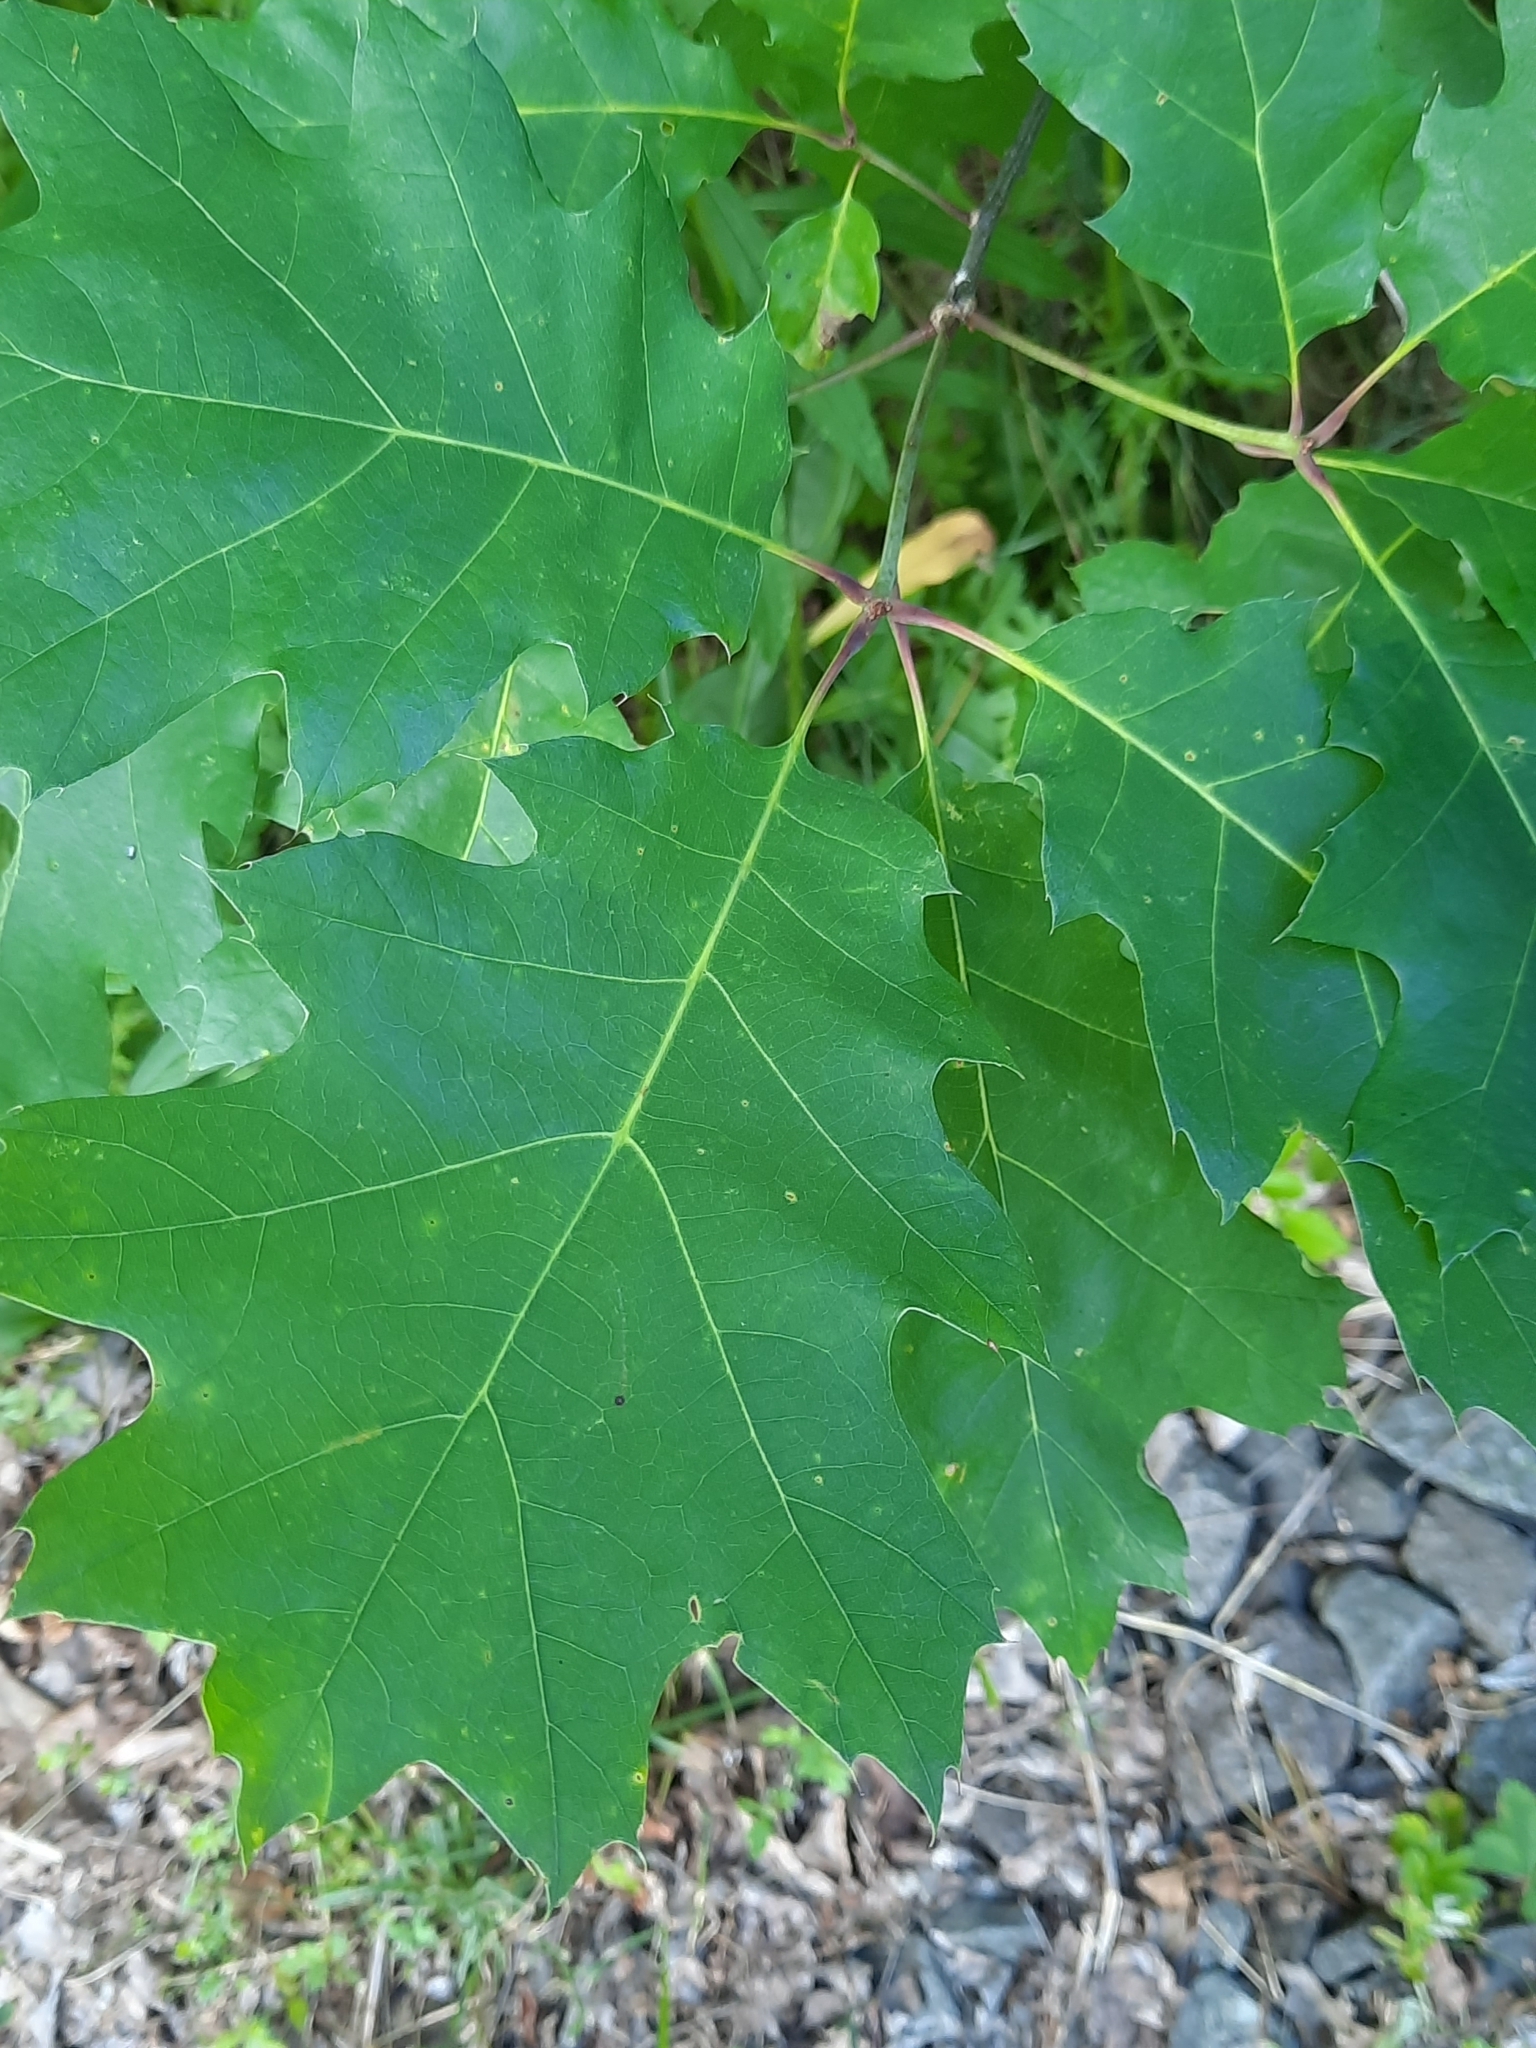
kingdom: Plantae
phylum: Tracheophyta
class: Magnoliopsida
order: Fagales
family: Fagaceae
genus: Quercus
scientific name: Quercus rubra
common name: Red oak
